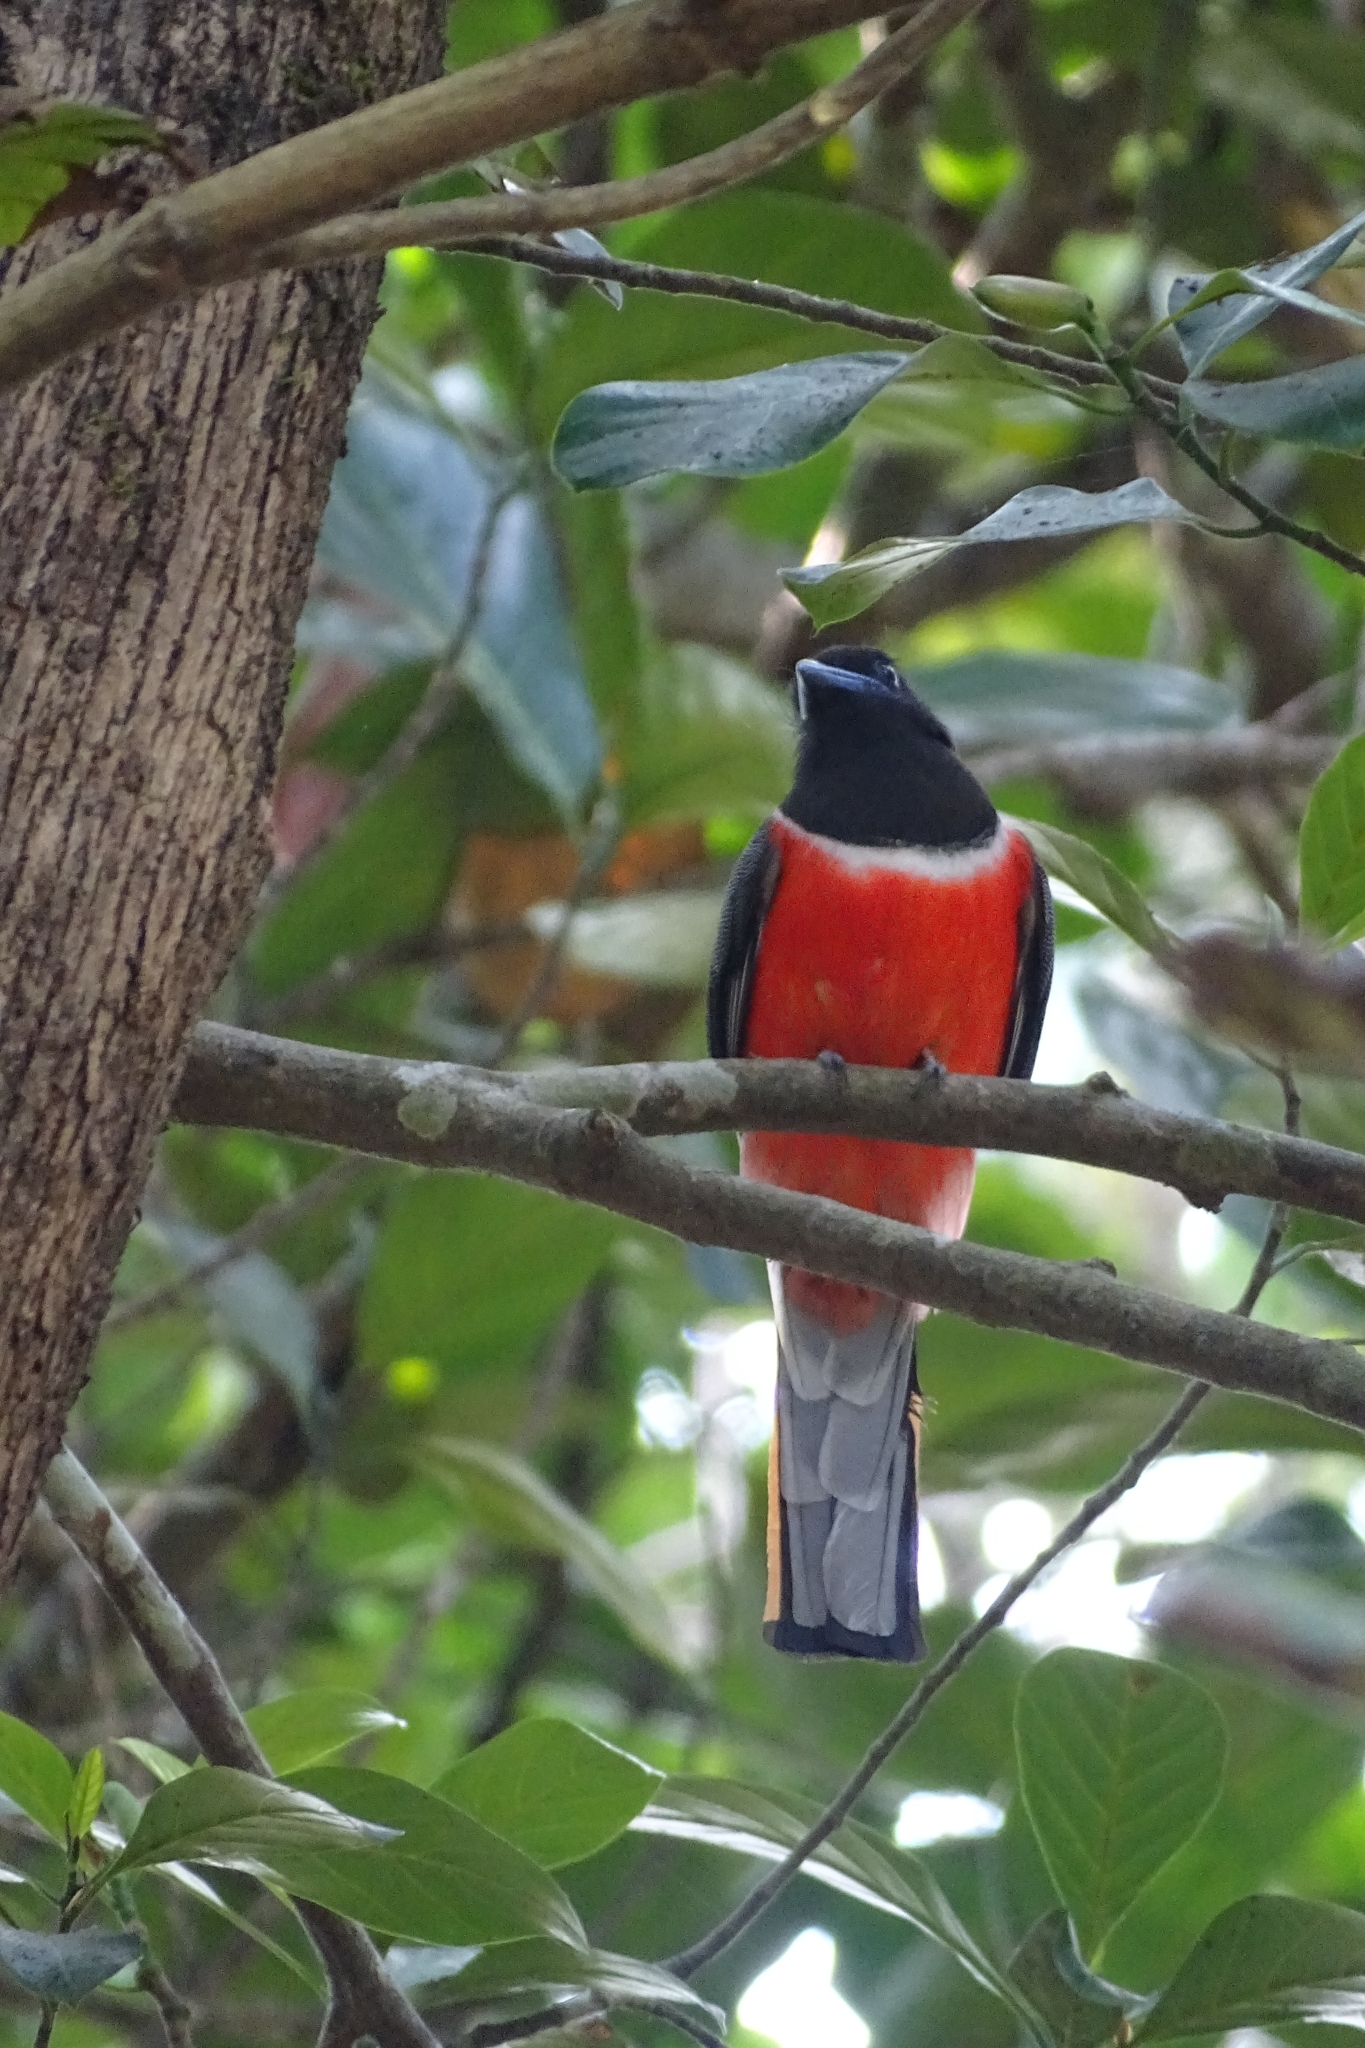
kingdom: Animalia
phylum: Chordata
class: Aves
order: Trogoniformes
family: Trogonidae
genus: Harpactes
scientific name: Harpactes fasciatus
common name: Malabar trogon
